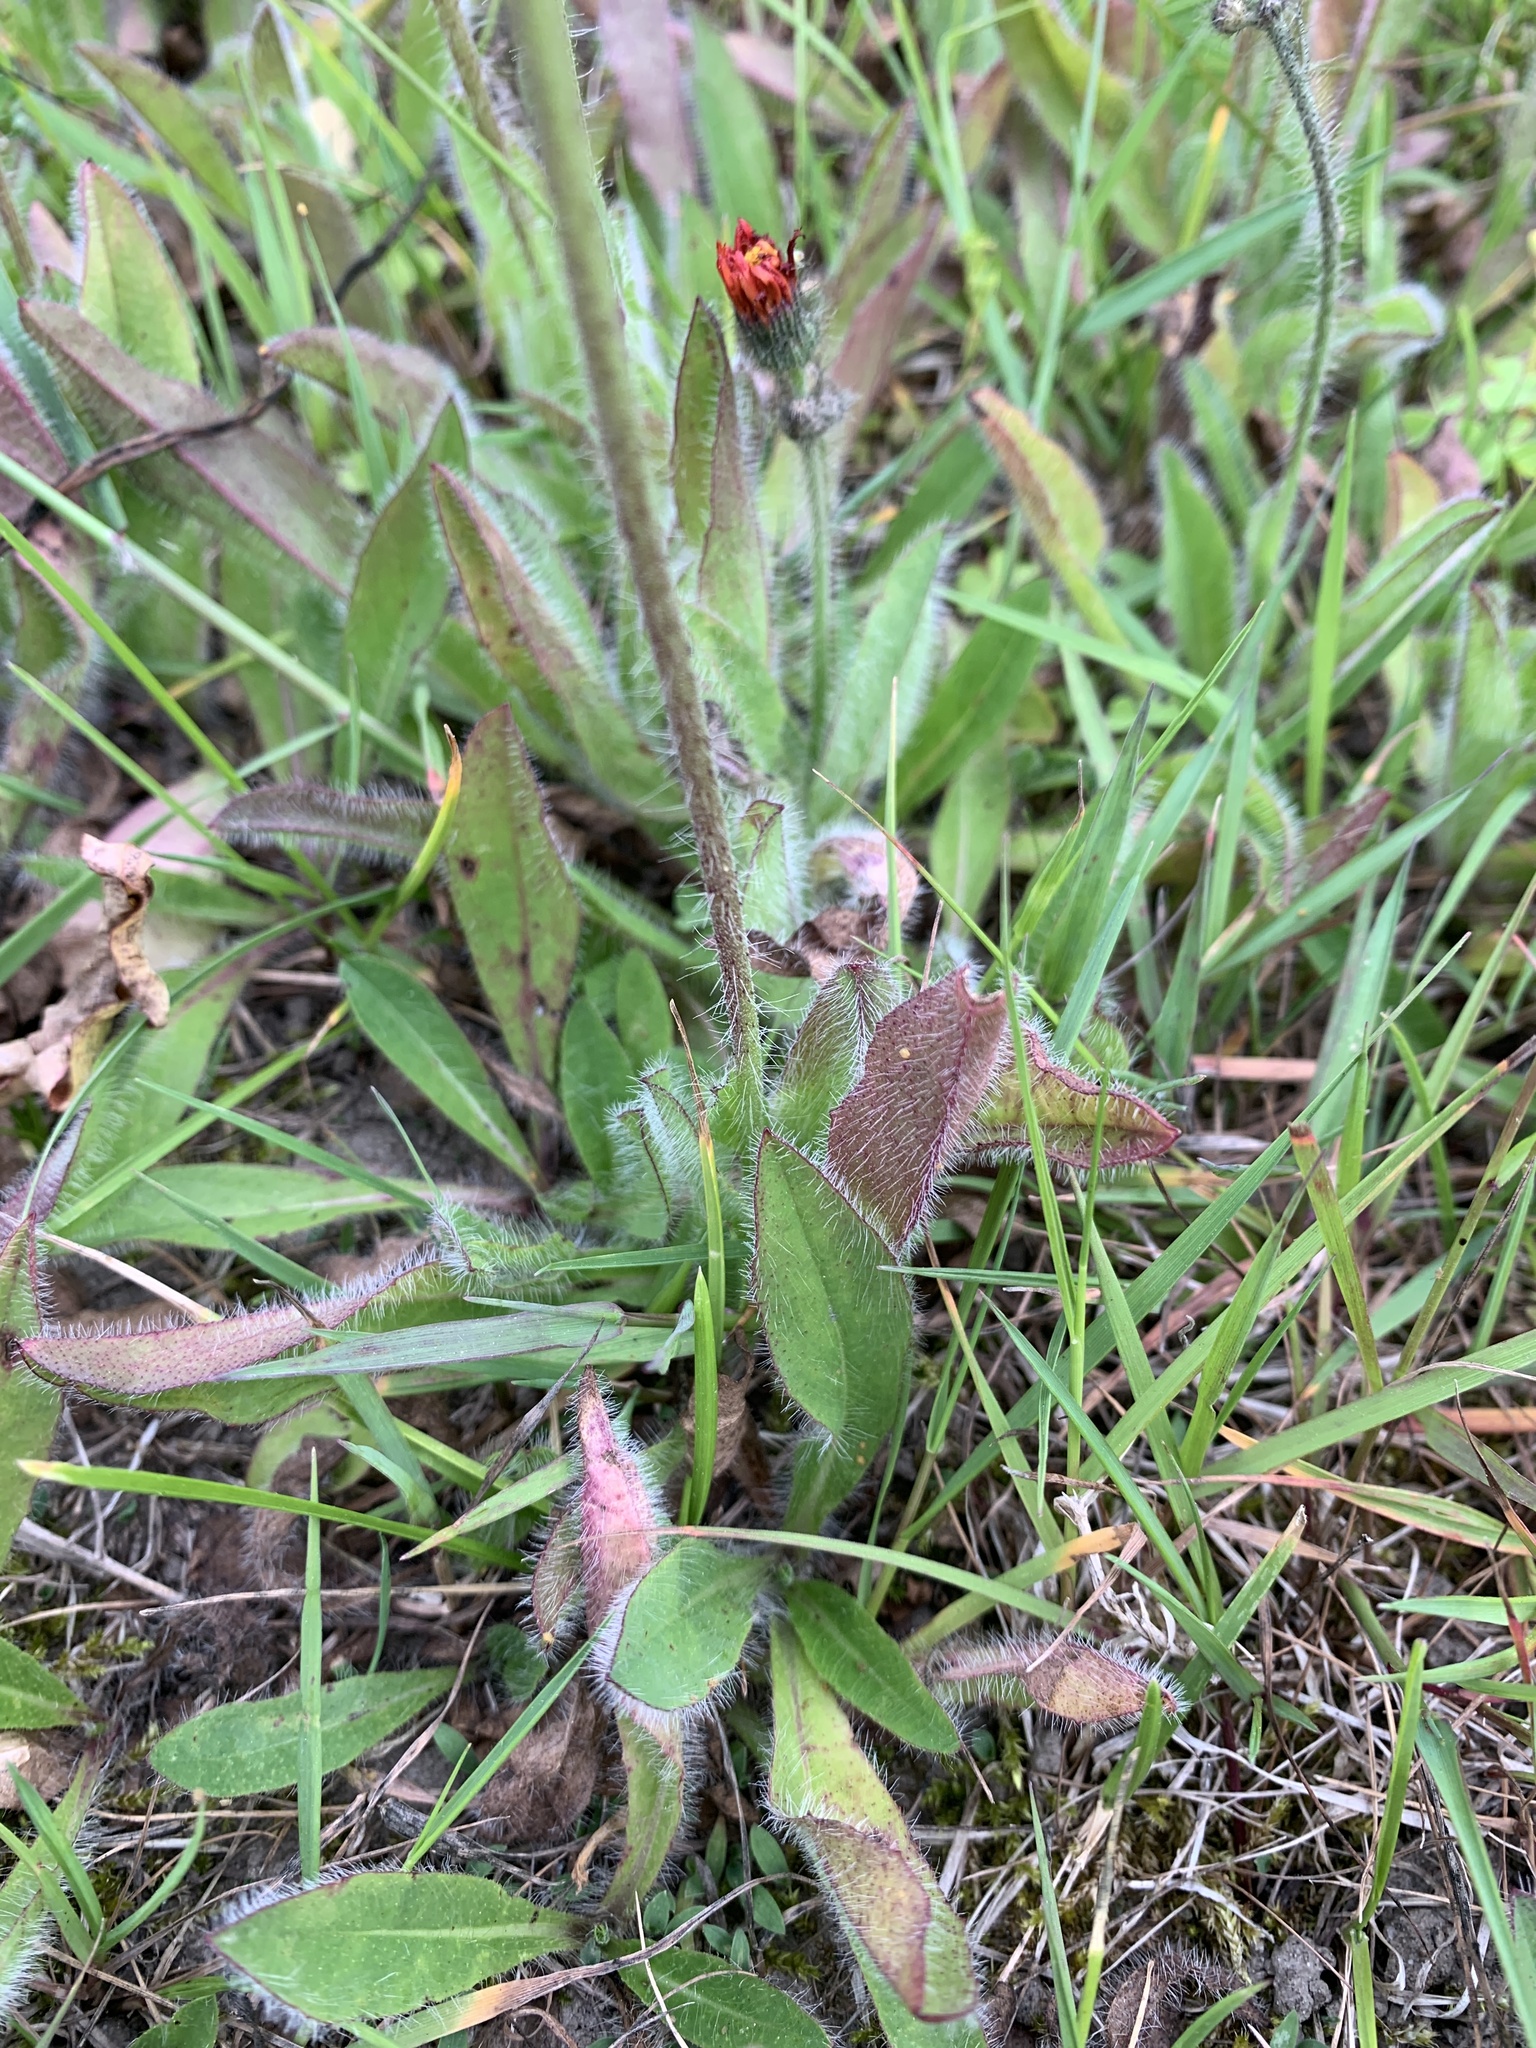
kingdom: Plantae
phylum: Tracheophyta
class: Magnoliopsida
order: Asterales
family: Asteraceae
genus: Pilosella
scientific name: Pilosella aurantiaca
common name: Fox-and-cubs
